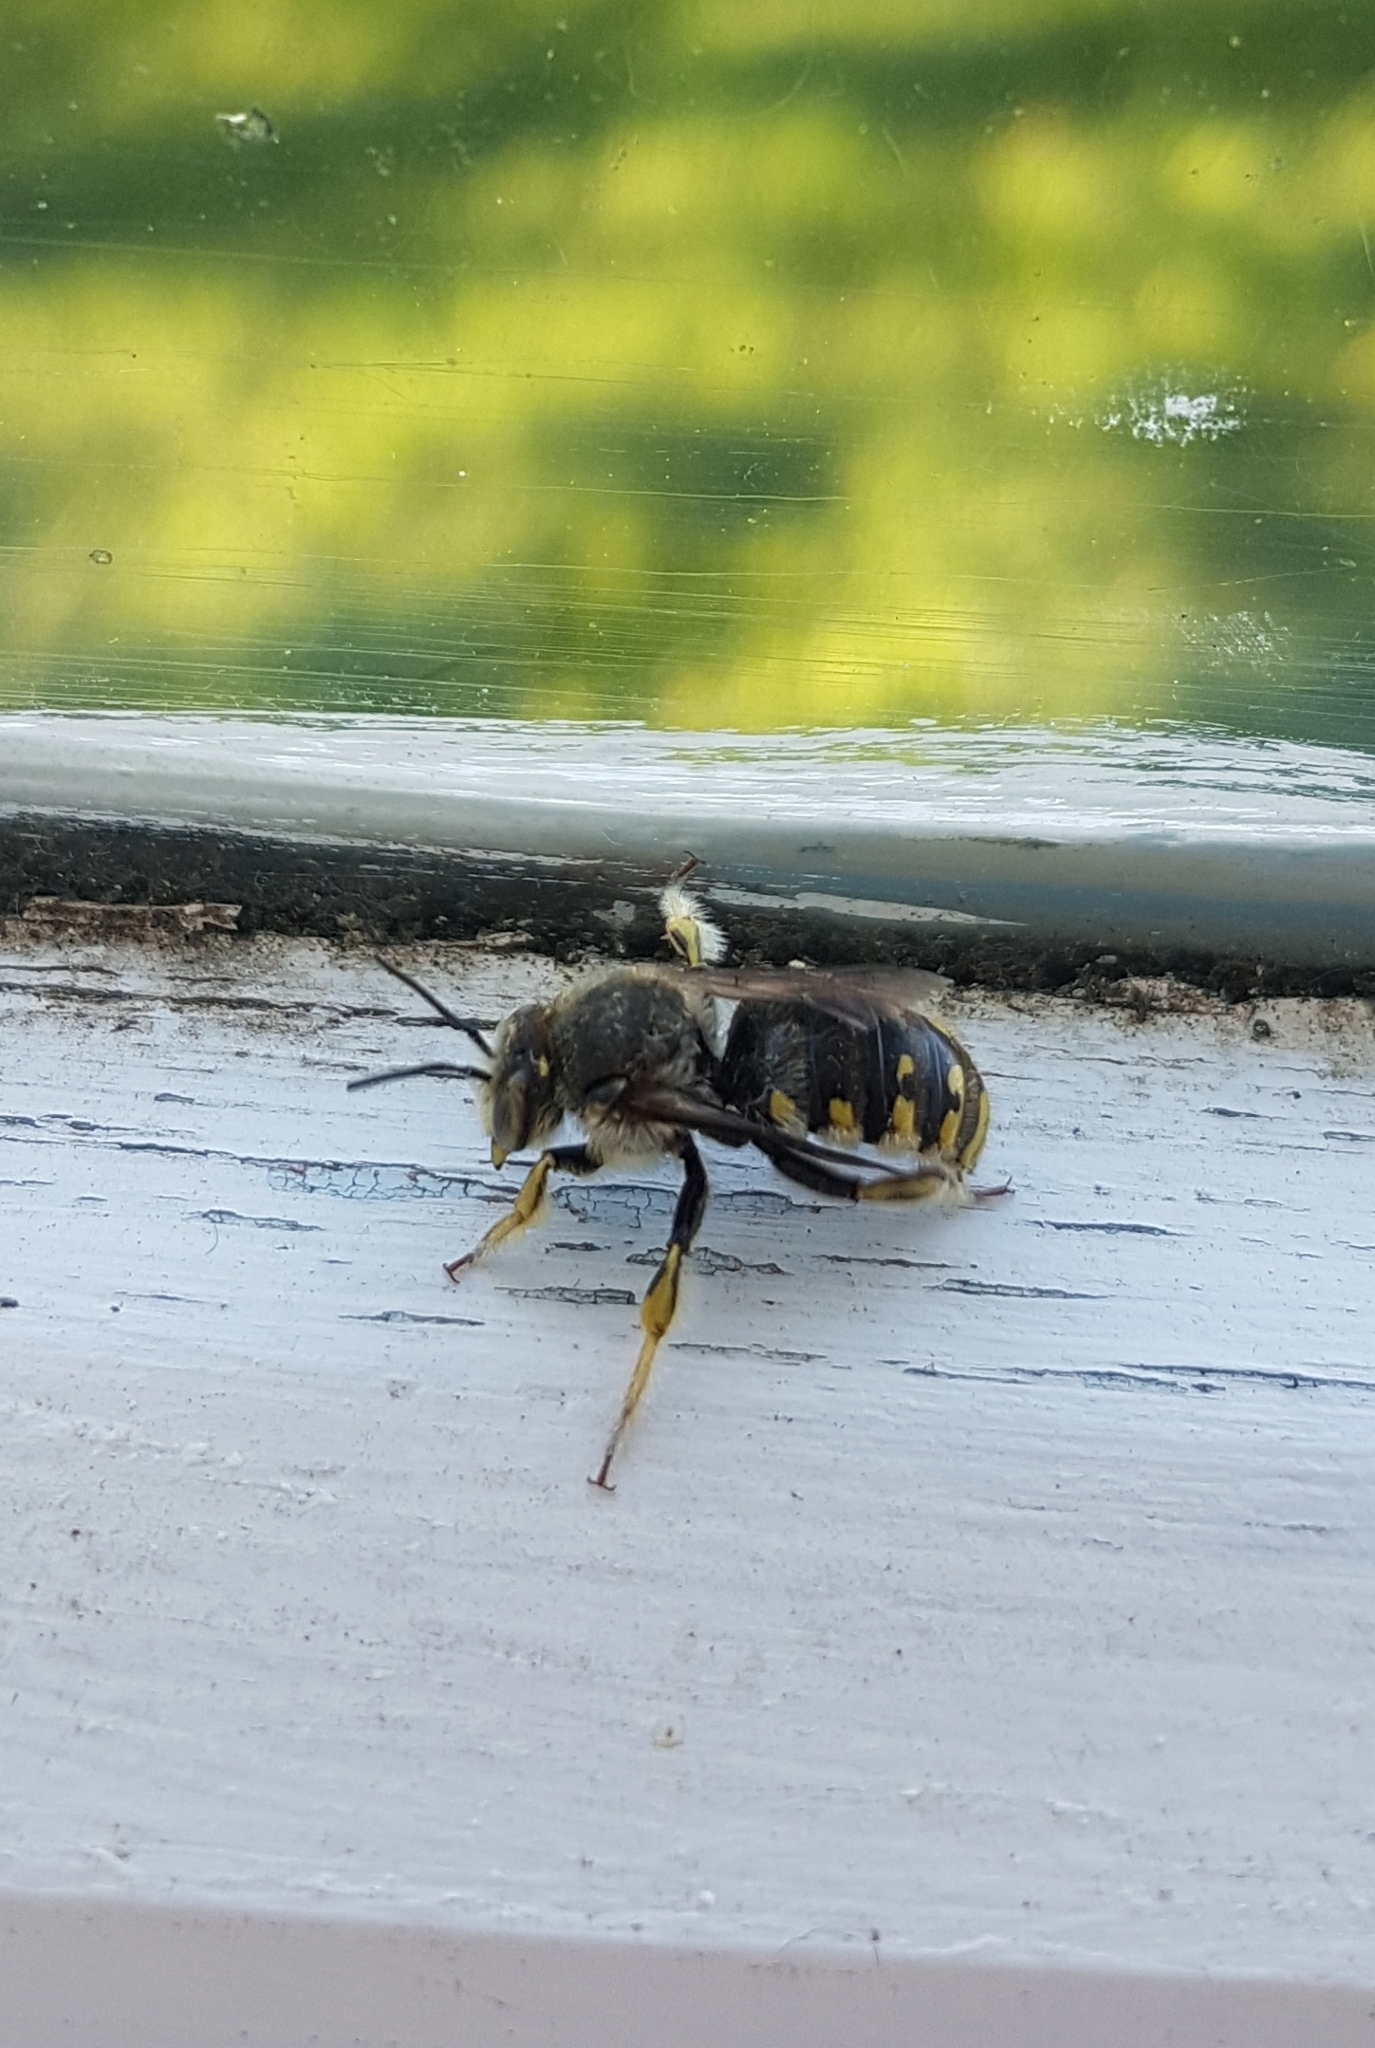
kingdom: Animalia
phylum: Arthropoda
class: Insecta
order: Hymenoptera
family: Megachilidae
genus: Anthidium
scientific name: Anthidium manicatum
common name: Wool carder bee
